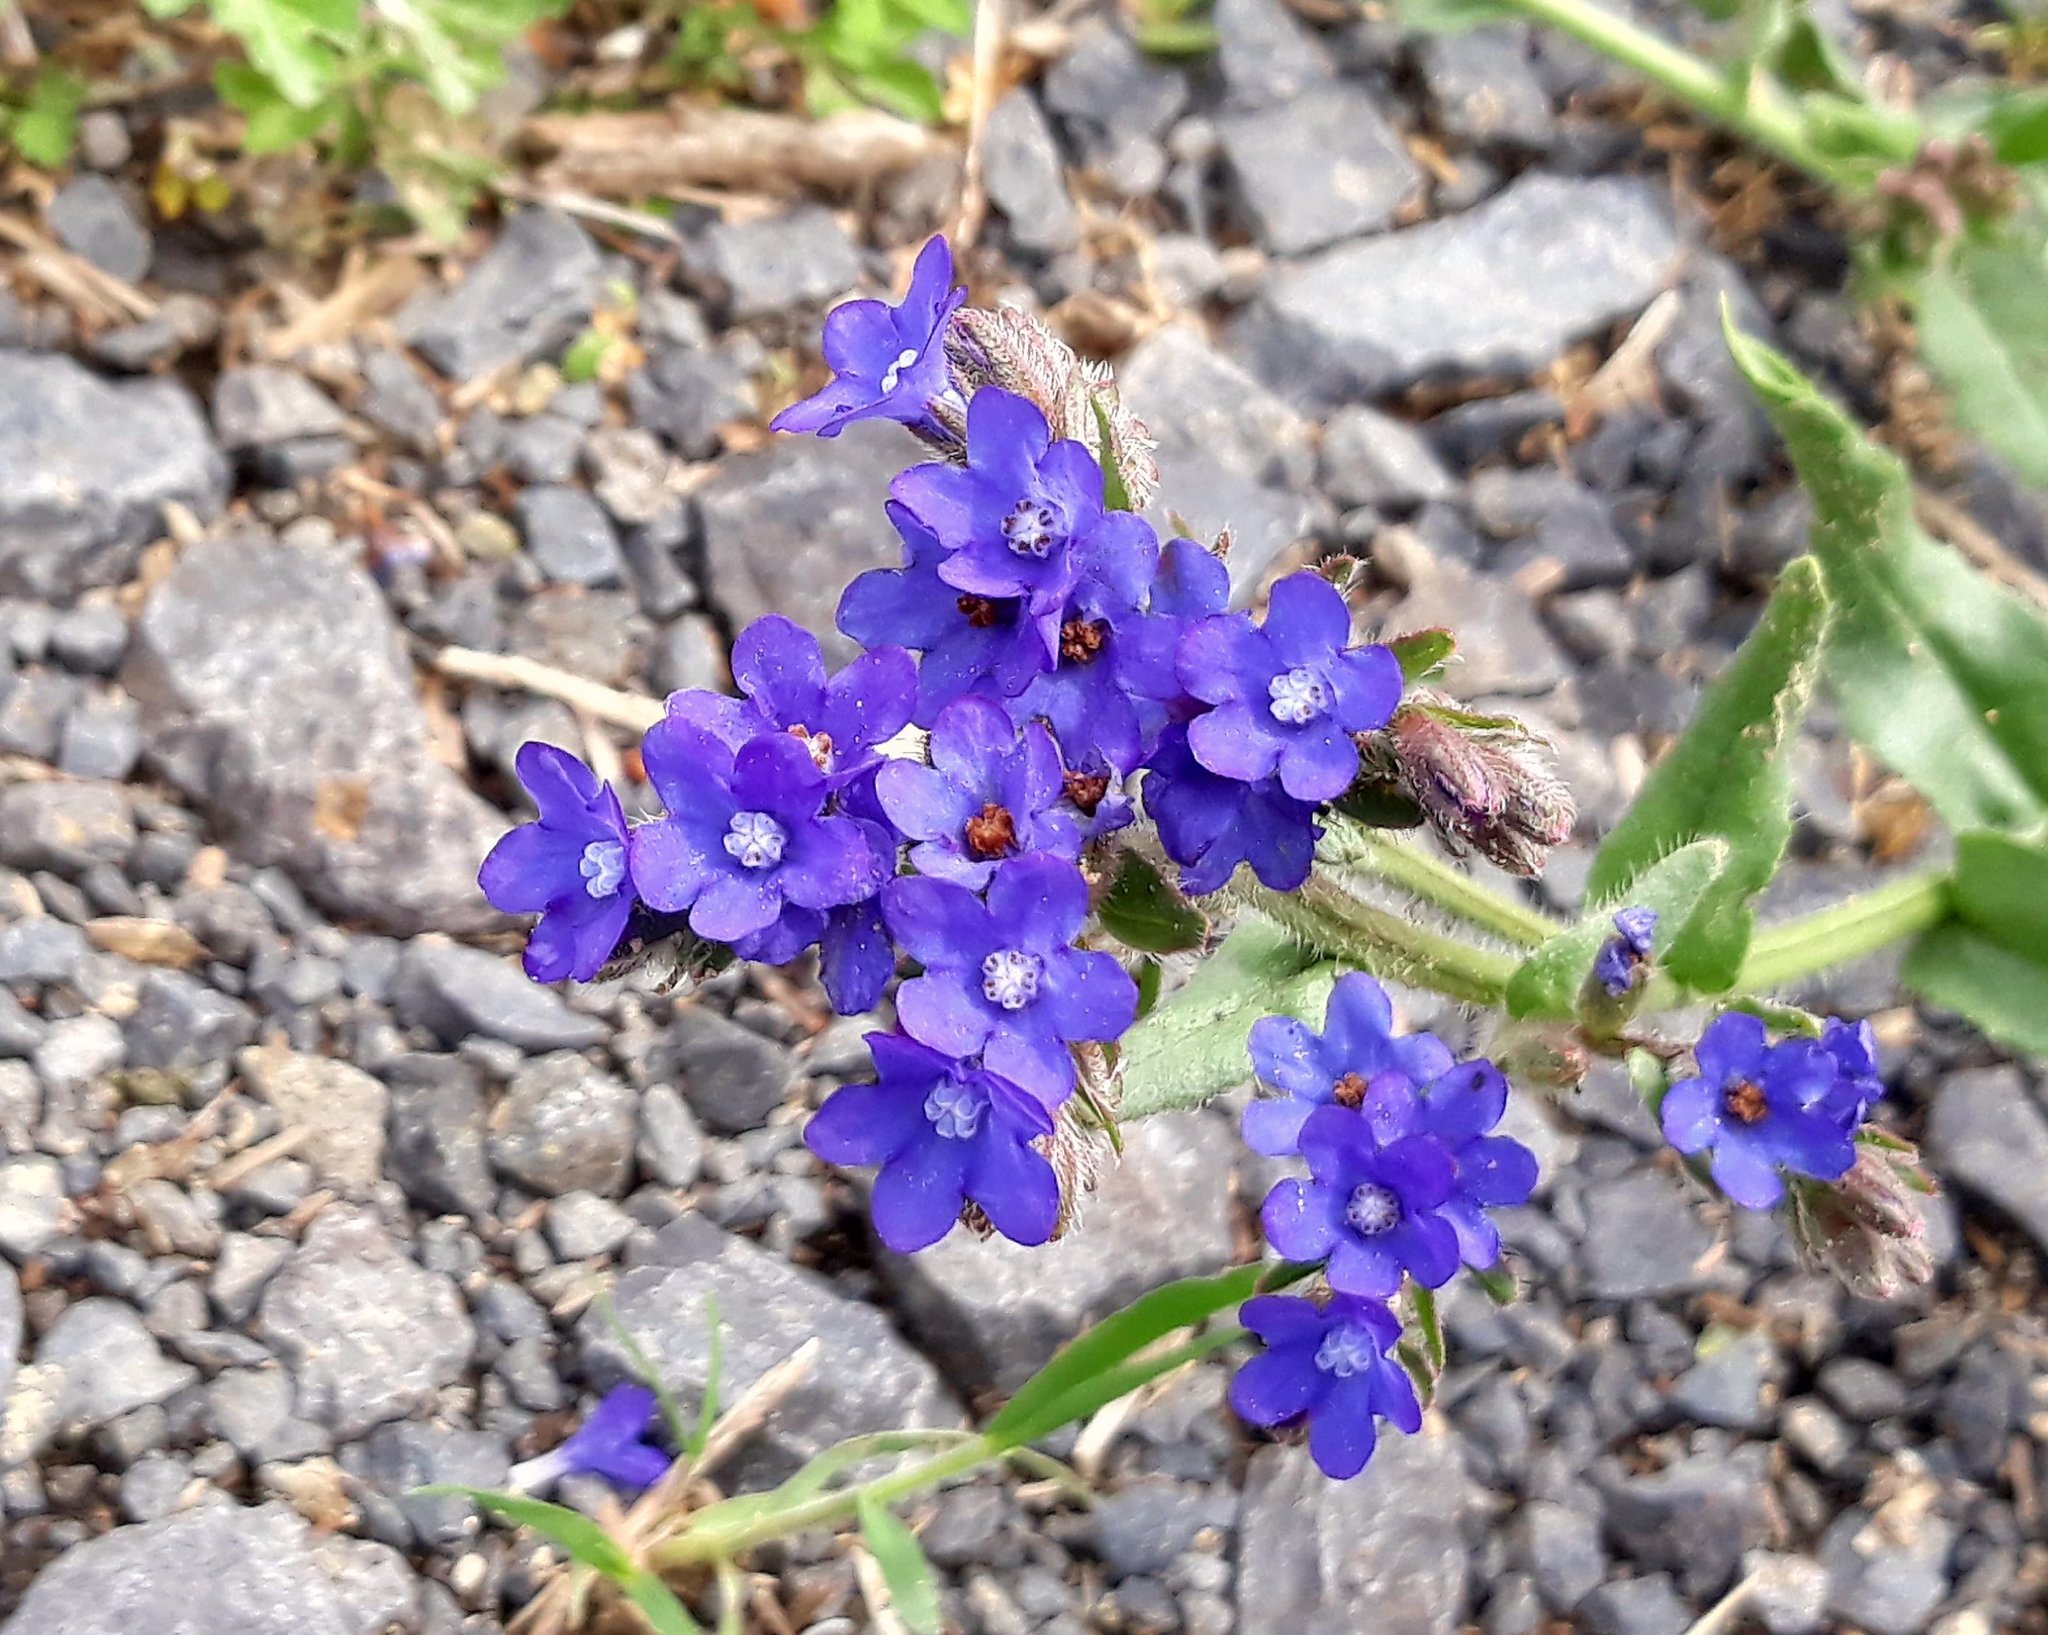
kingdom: Plantae
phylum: Tracheophyta
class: Magnoliopsida
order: Boraginales
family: Boraginaceae
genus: Anchusa
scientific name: Anchusa officinalis
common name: Alkanet
